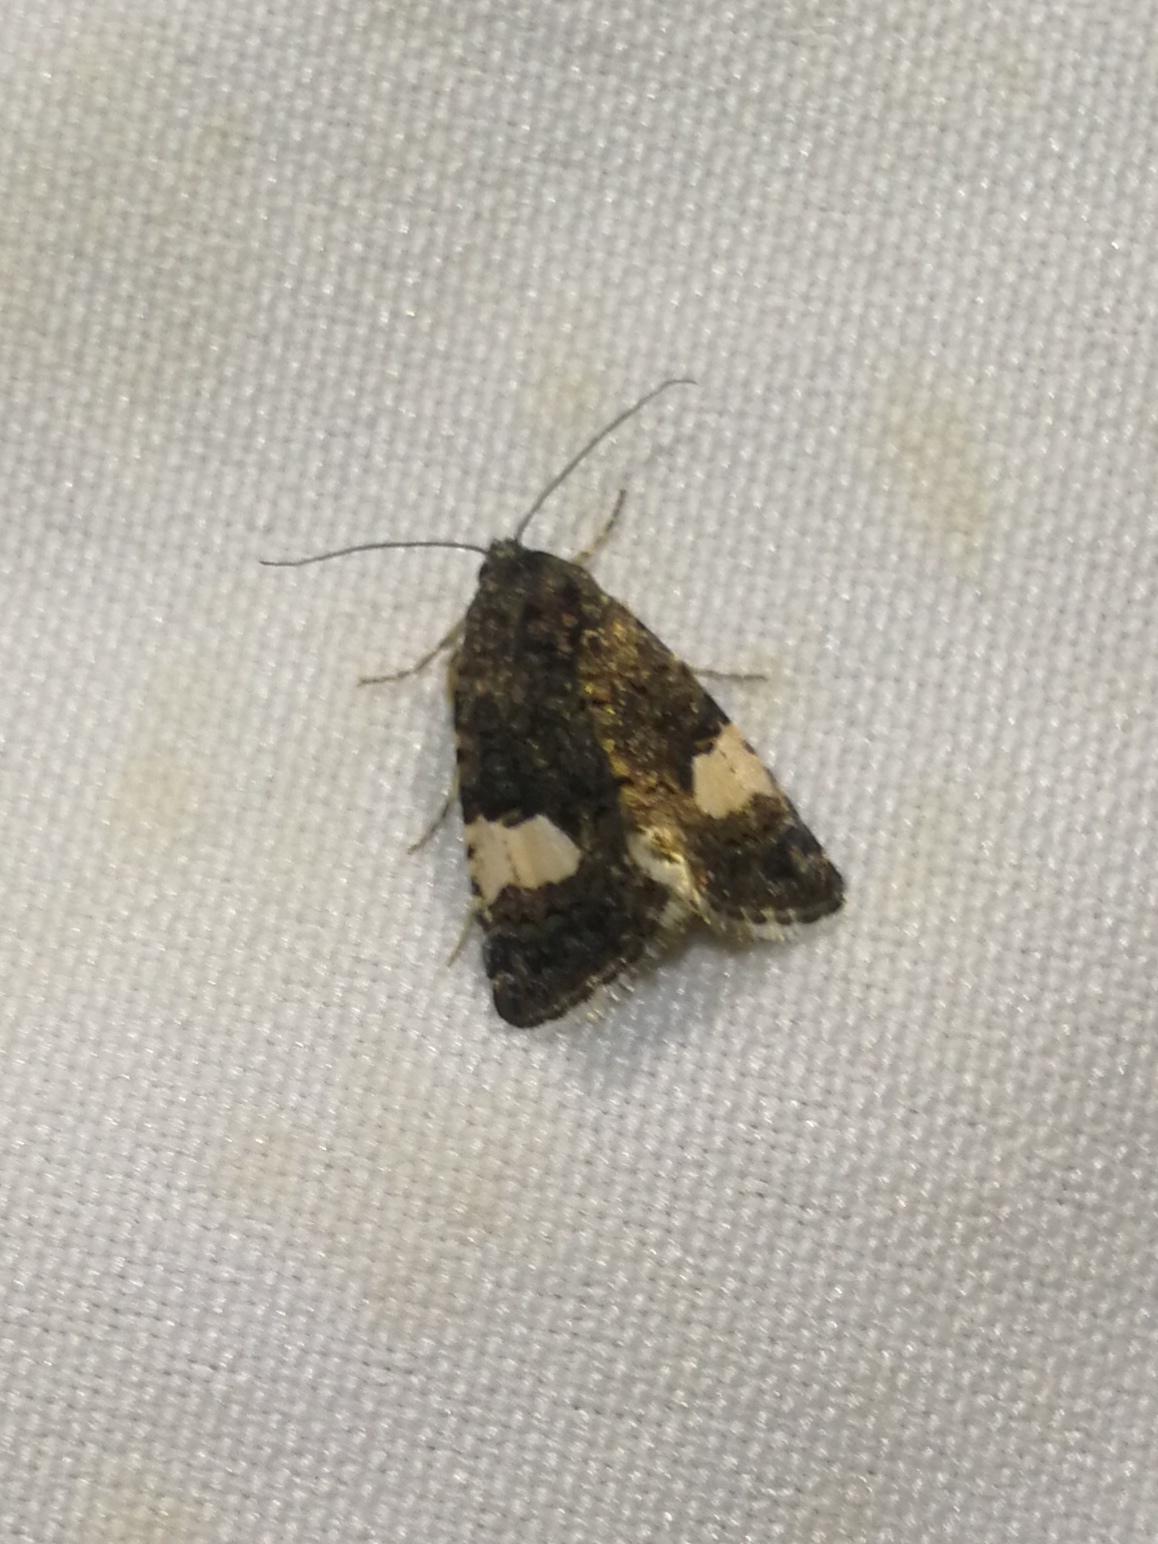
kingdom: Animalia
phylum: Arthropoda
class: Insecta
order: Lepidoptera
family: Erebidae
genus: Tyta
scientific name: Tyta luctuosa
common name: Four-spotted
